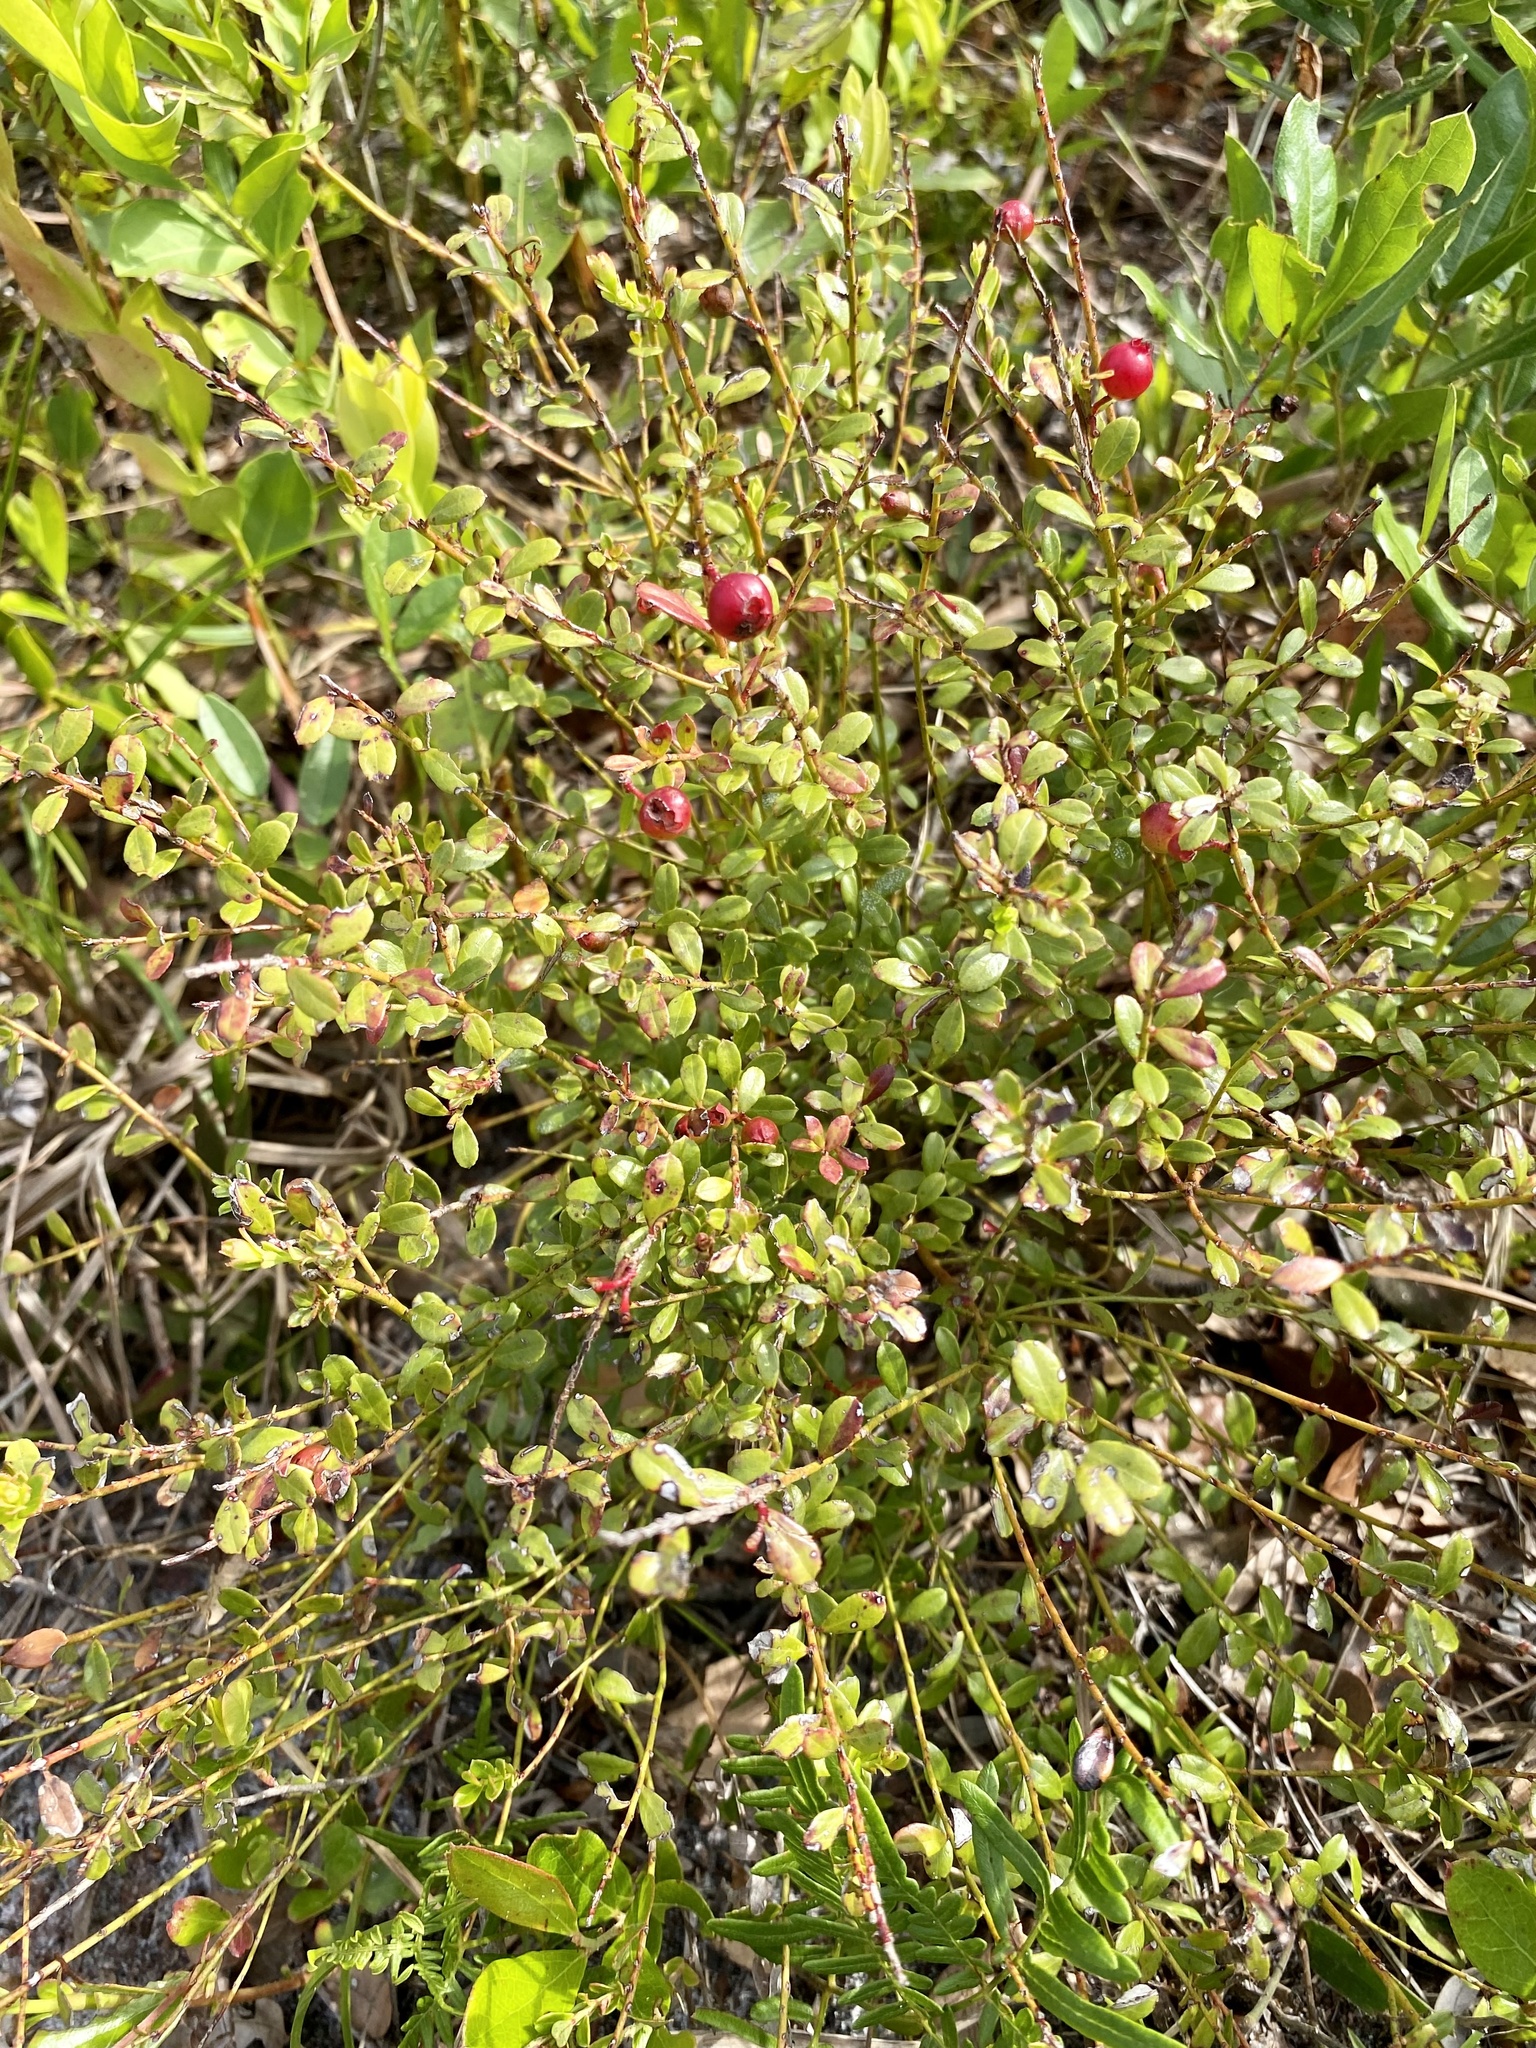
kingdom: Plantae
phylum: Tracheophyta
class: Magnoliopsida
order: Ericales
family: Ericaceae
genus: Vaccinium
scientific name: Vaccinium myrsinites
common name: Evergreen blueberry
